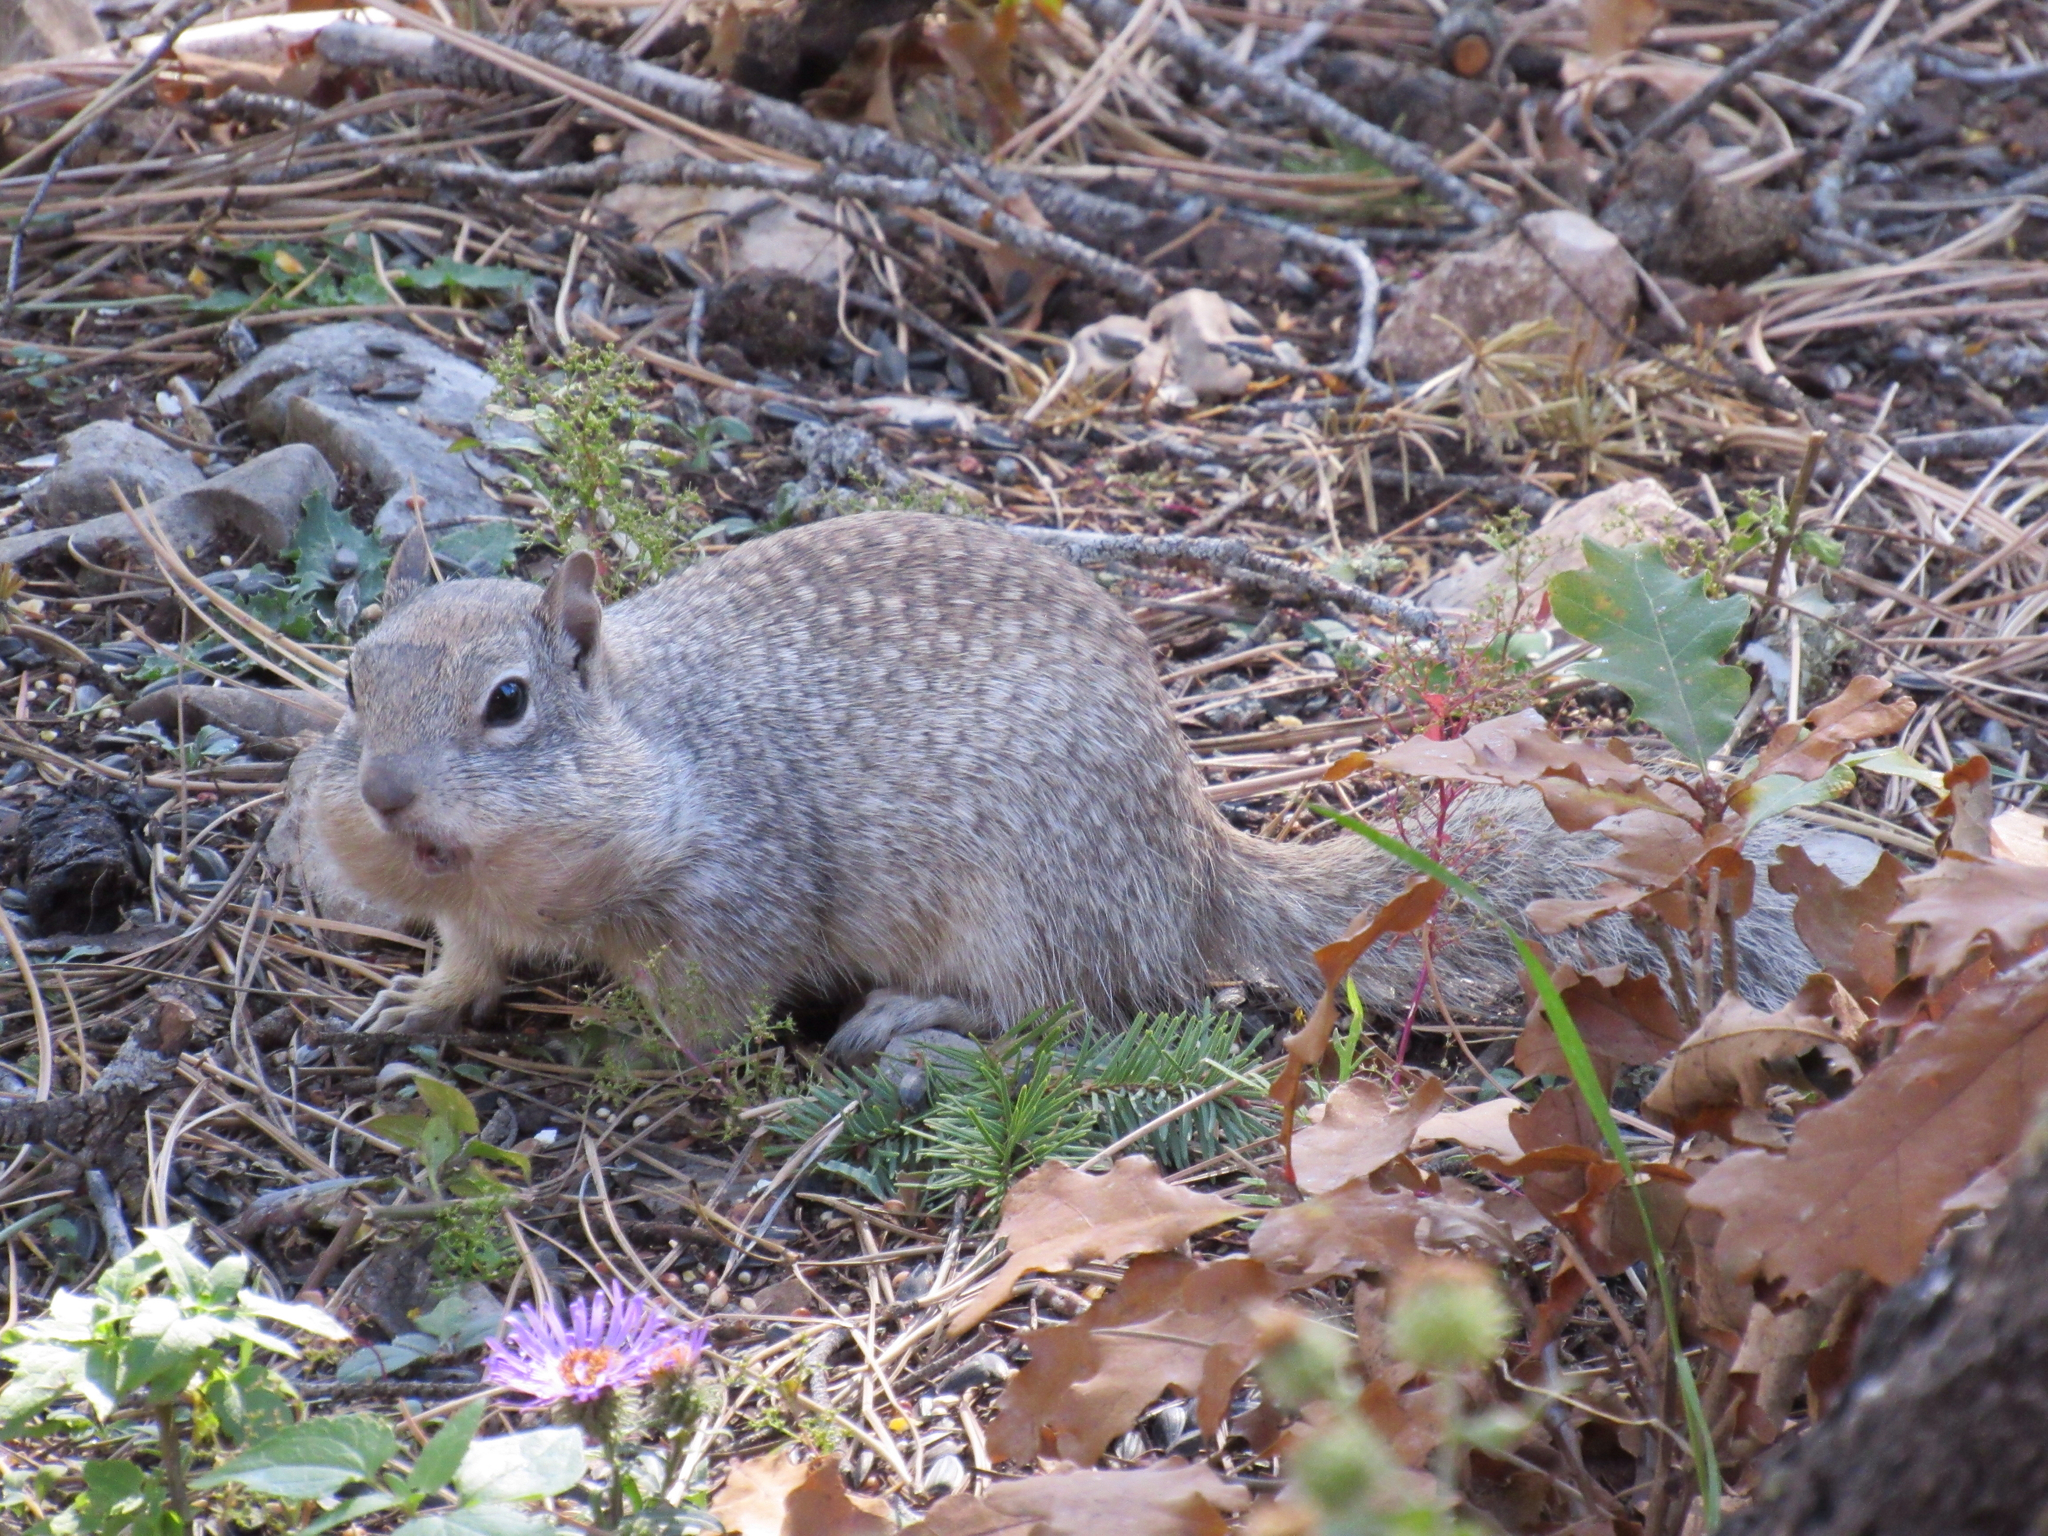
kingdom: Animalia
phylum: Chordata
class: Mammalia
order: Rodentia
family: Sciuridae
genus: Otospermophilus
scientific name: Otospermophilus variegatus
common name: Rock squirrel
